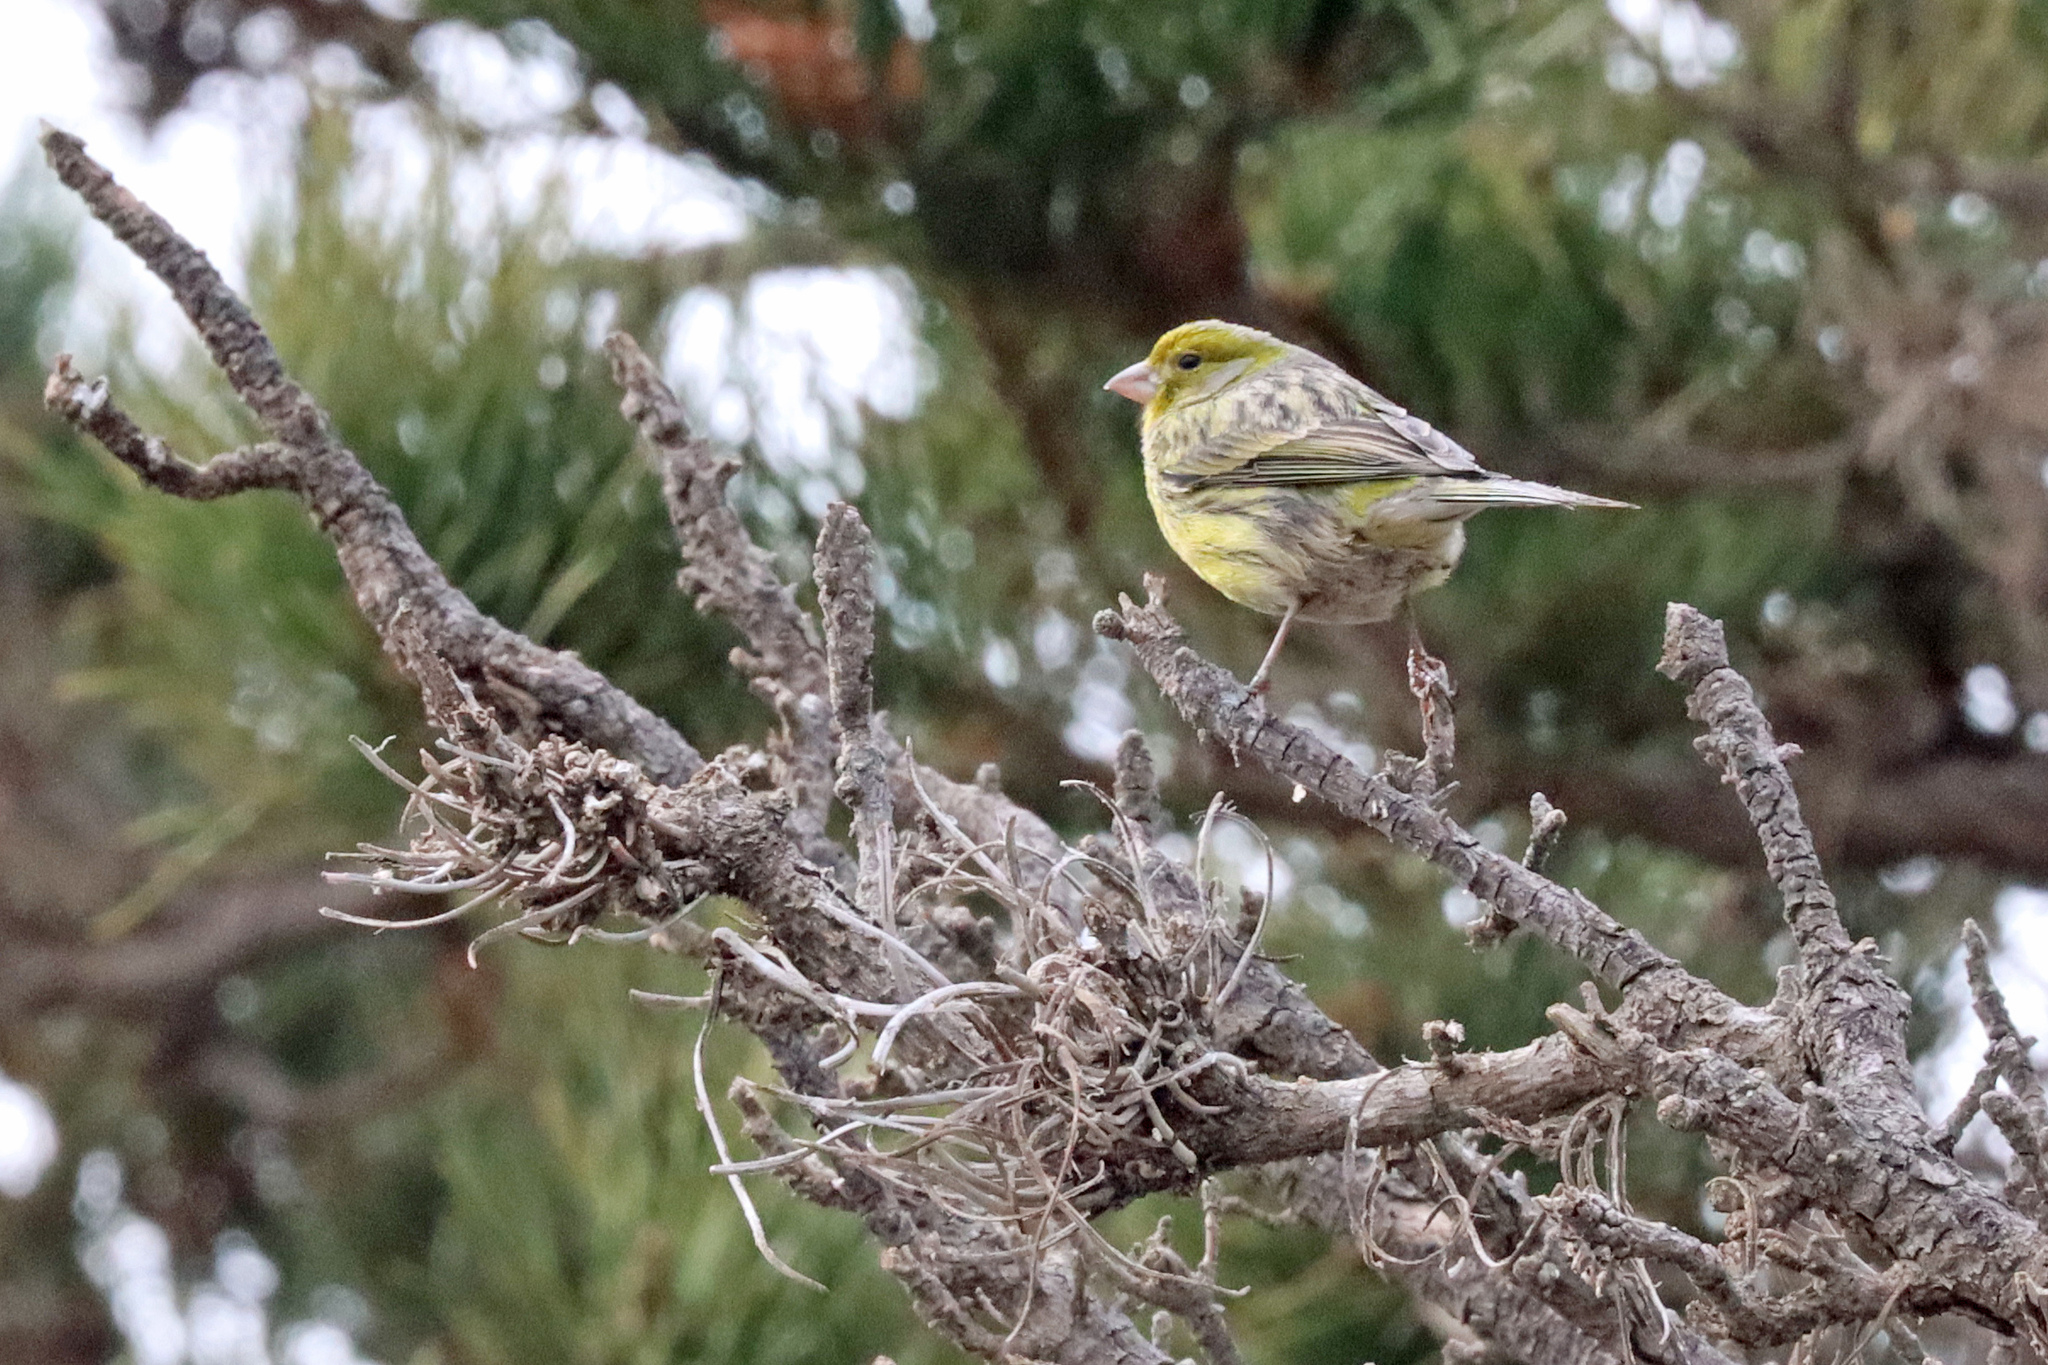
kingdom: Animalia
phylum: Chordata
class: Aves
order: Passeriformes
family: Fringillidae
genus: Serinus
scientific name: Serinus canaria
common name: Atlantic canary
